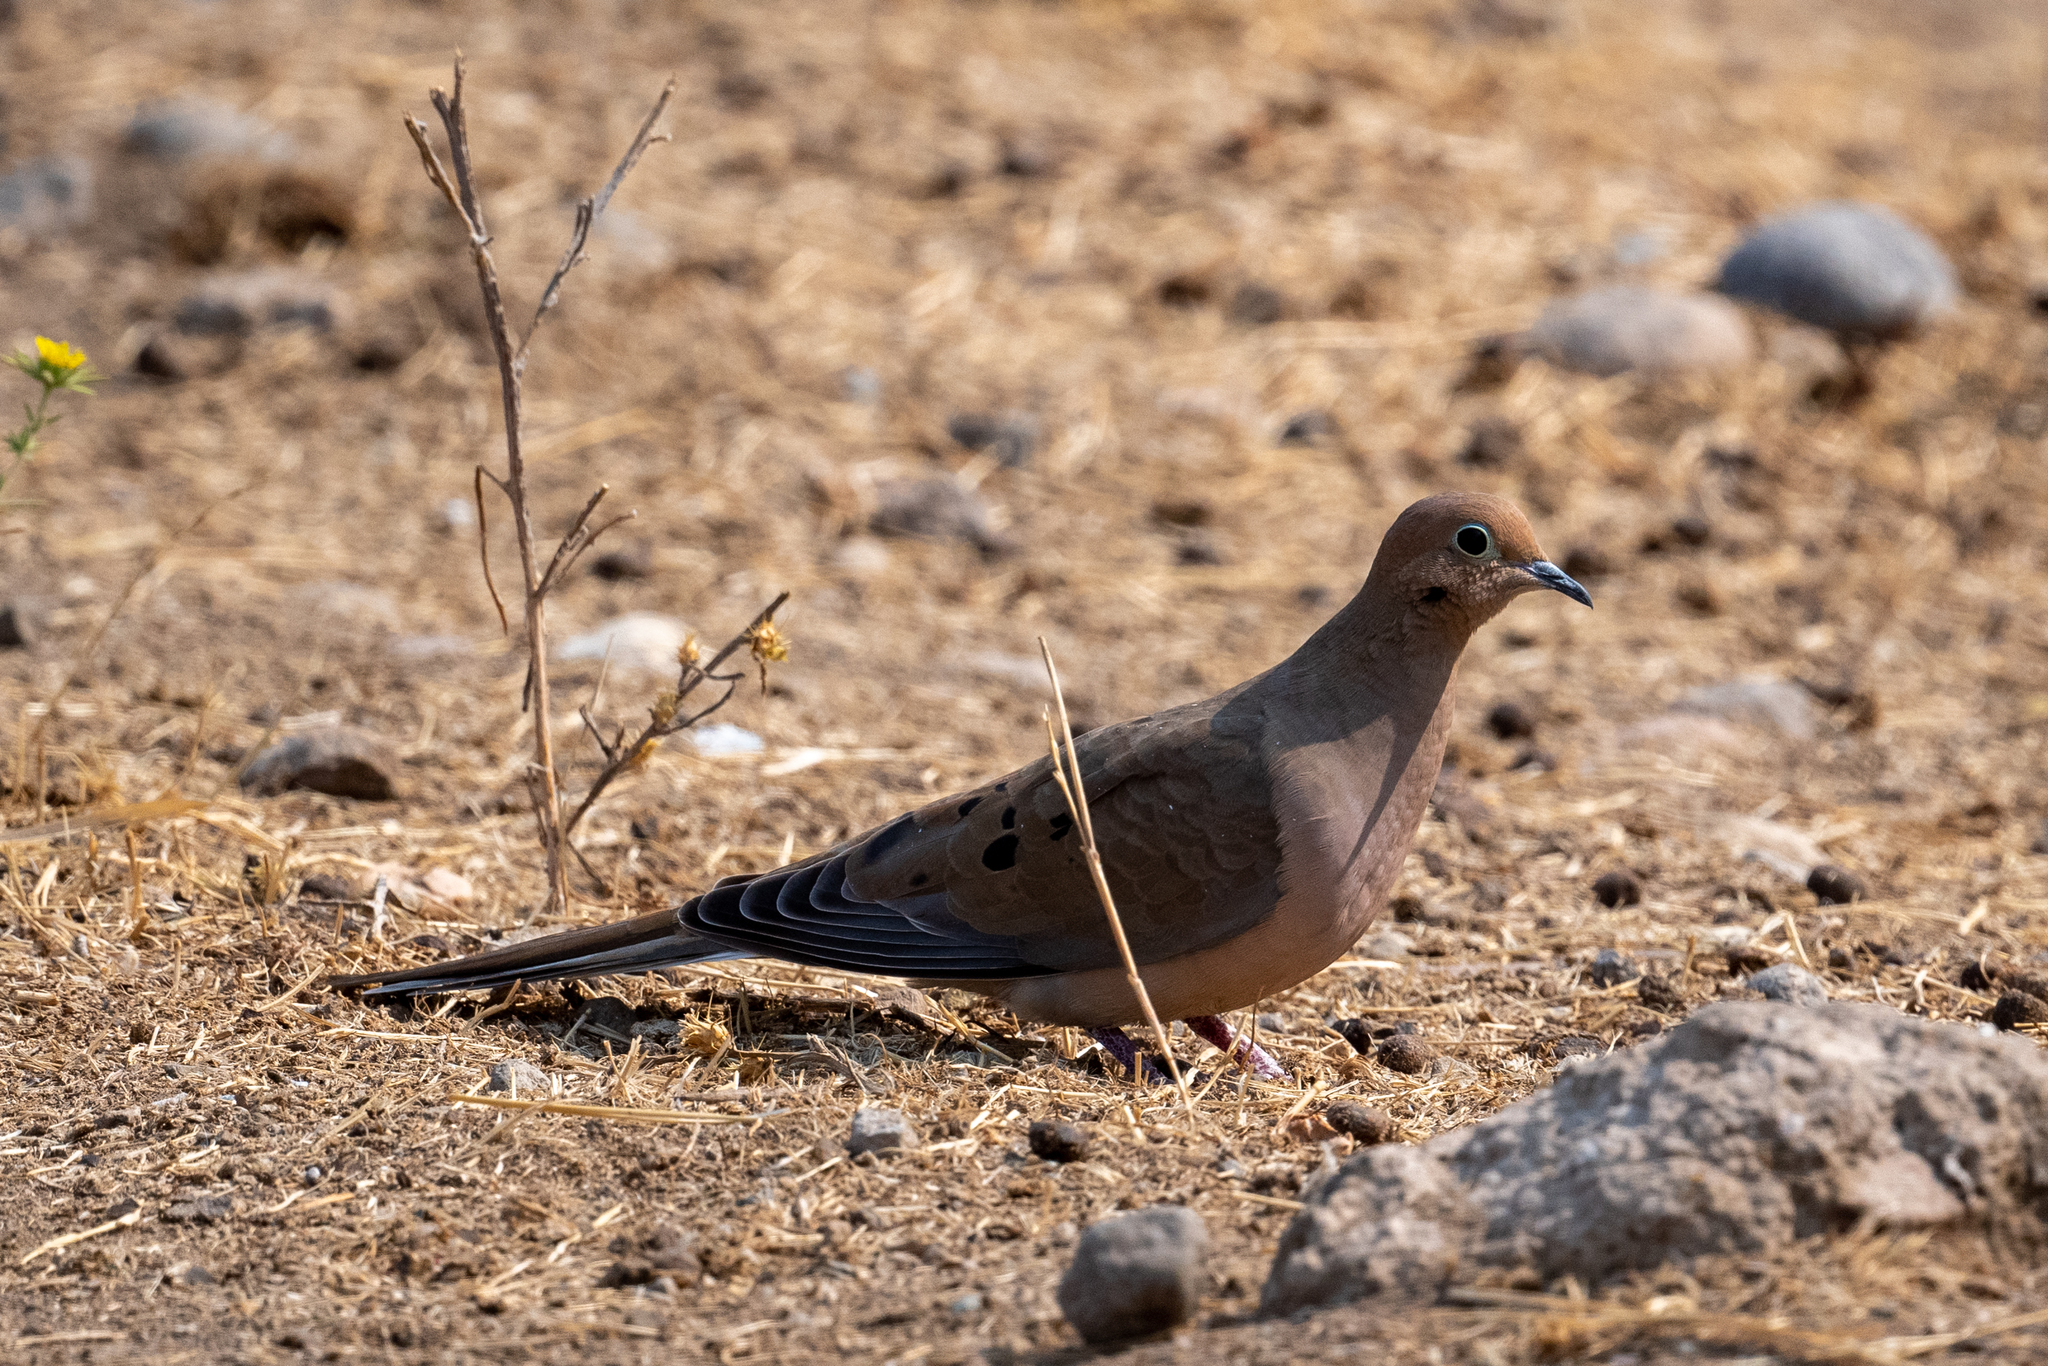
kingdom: Animalia
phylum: Chordata
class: Aves
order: Columbiformes
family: Columbidae
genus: Zenaida
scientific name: Zenaida macroura
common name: Mourning dove
